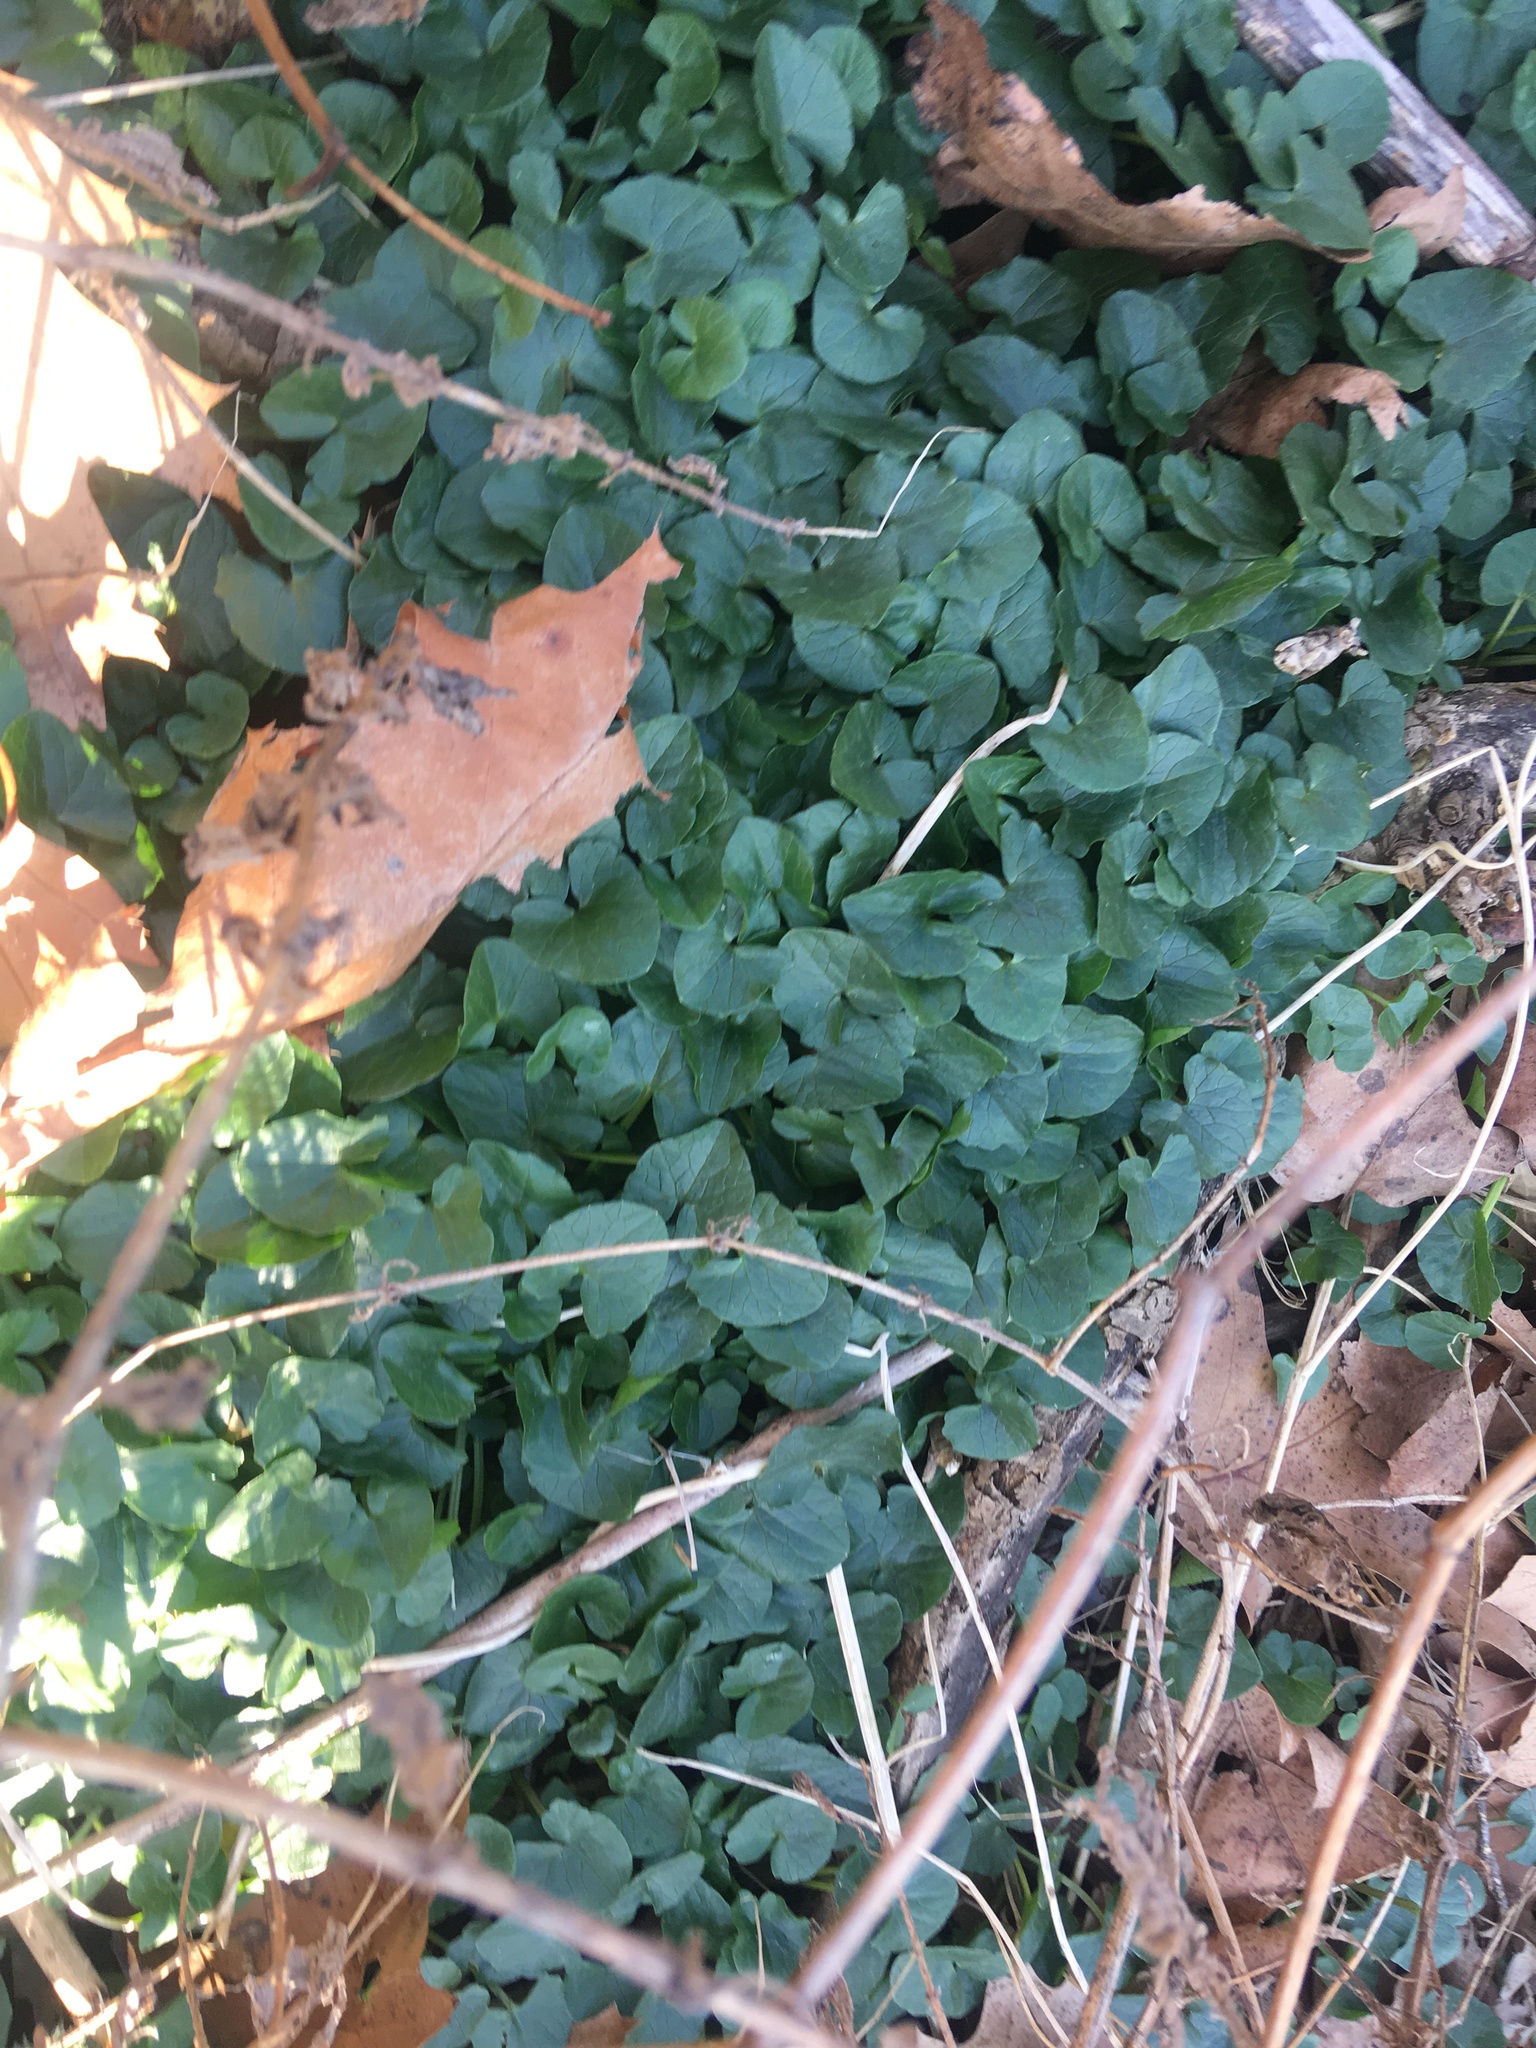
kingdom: Plantae
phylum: Tracheophyta
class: Magnoliopsida
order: Ranunculales
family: Ranunculaceae
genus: Ficaria
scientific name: Ficaria verna
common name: Lesser celandine
